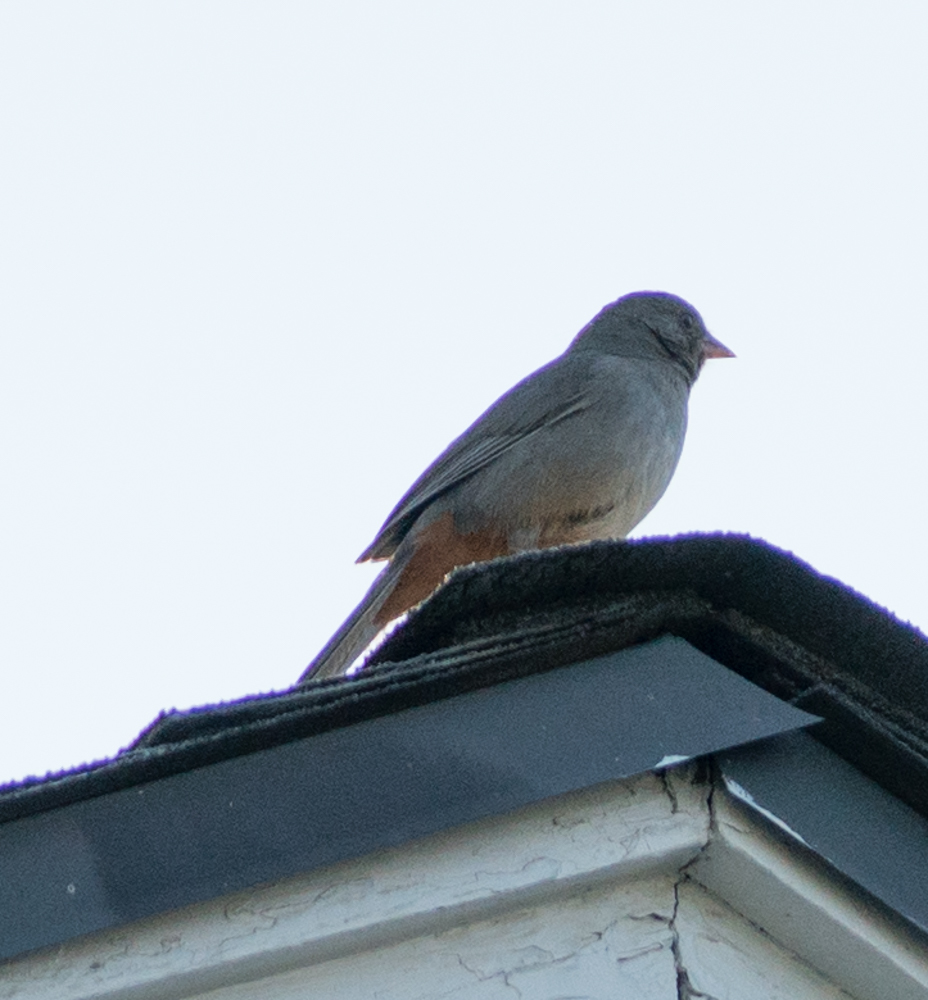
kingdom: Animalia
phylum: Chordata
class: Aves
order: Passeriformes
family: Passerellidae
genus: Melozone
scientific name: Melozone crissalis
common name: California towhee
